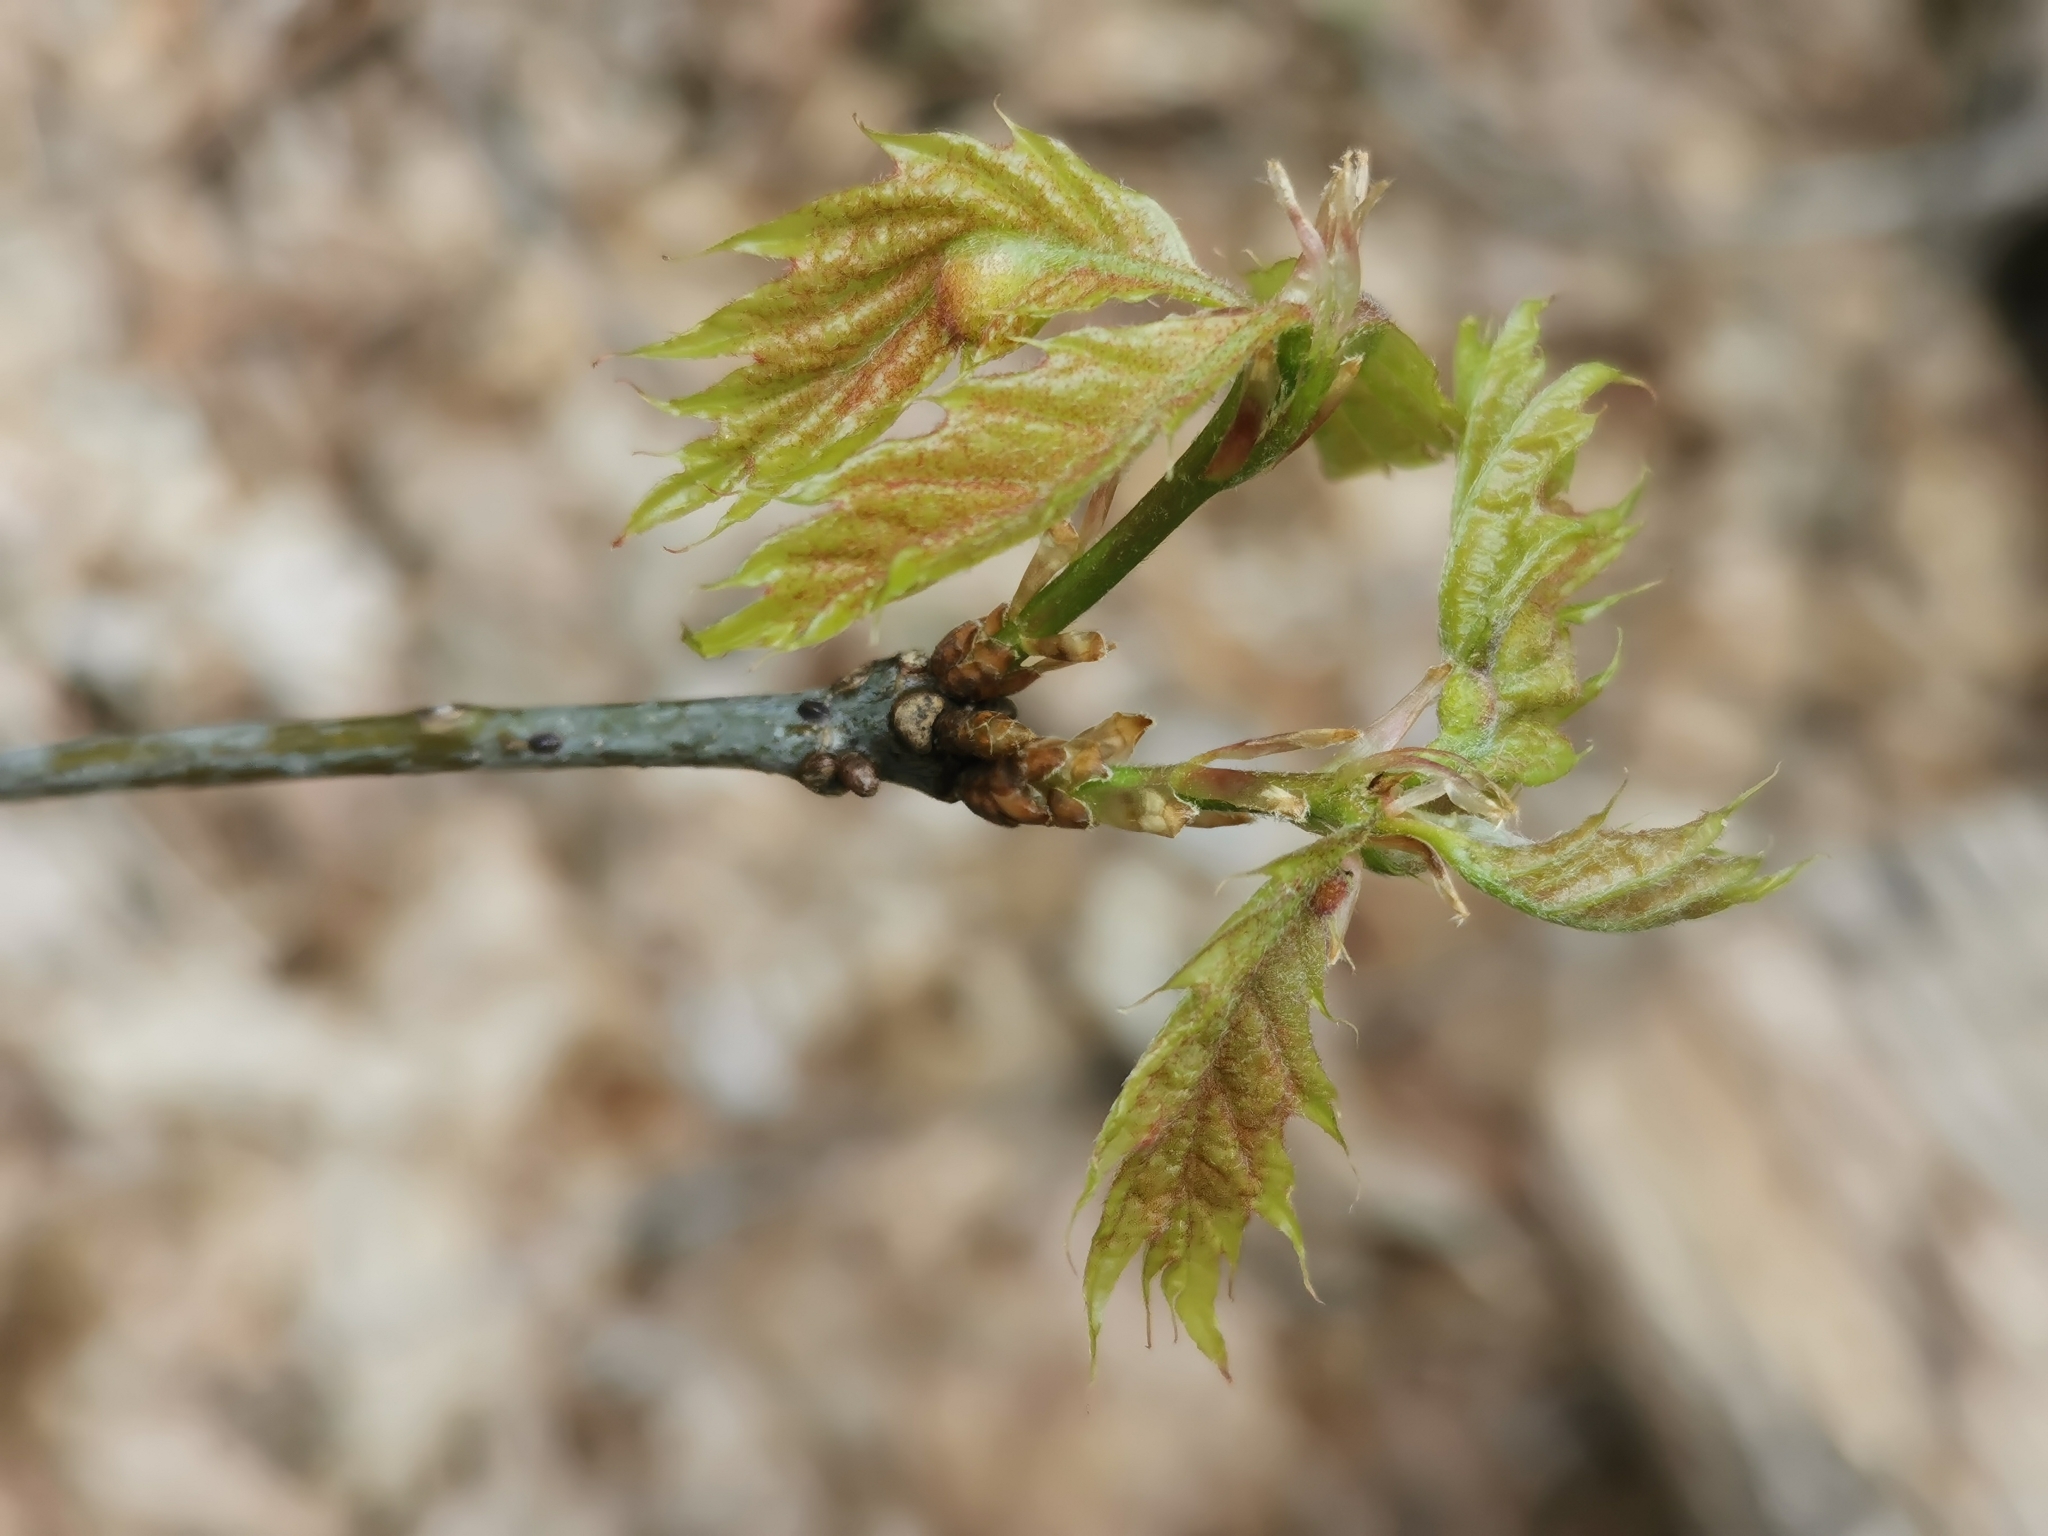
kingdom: Animalia
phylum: Arthropoda
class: Insecta
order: Hymenoptera
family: Cynipidae
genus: Dryocosmus
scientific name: Dryocosmus quercuspalustris
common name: Succulent oak gall wasp
